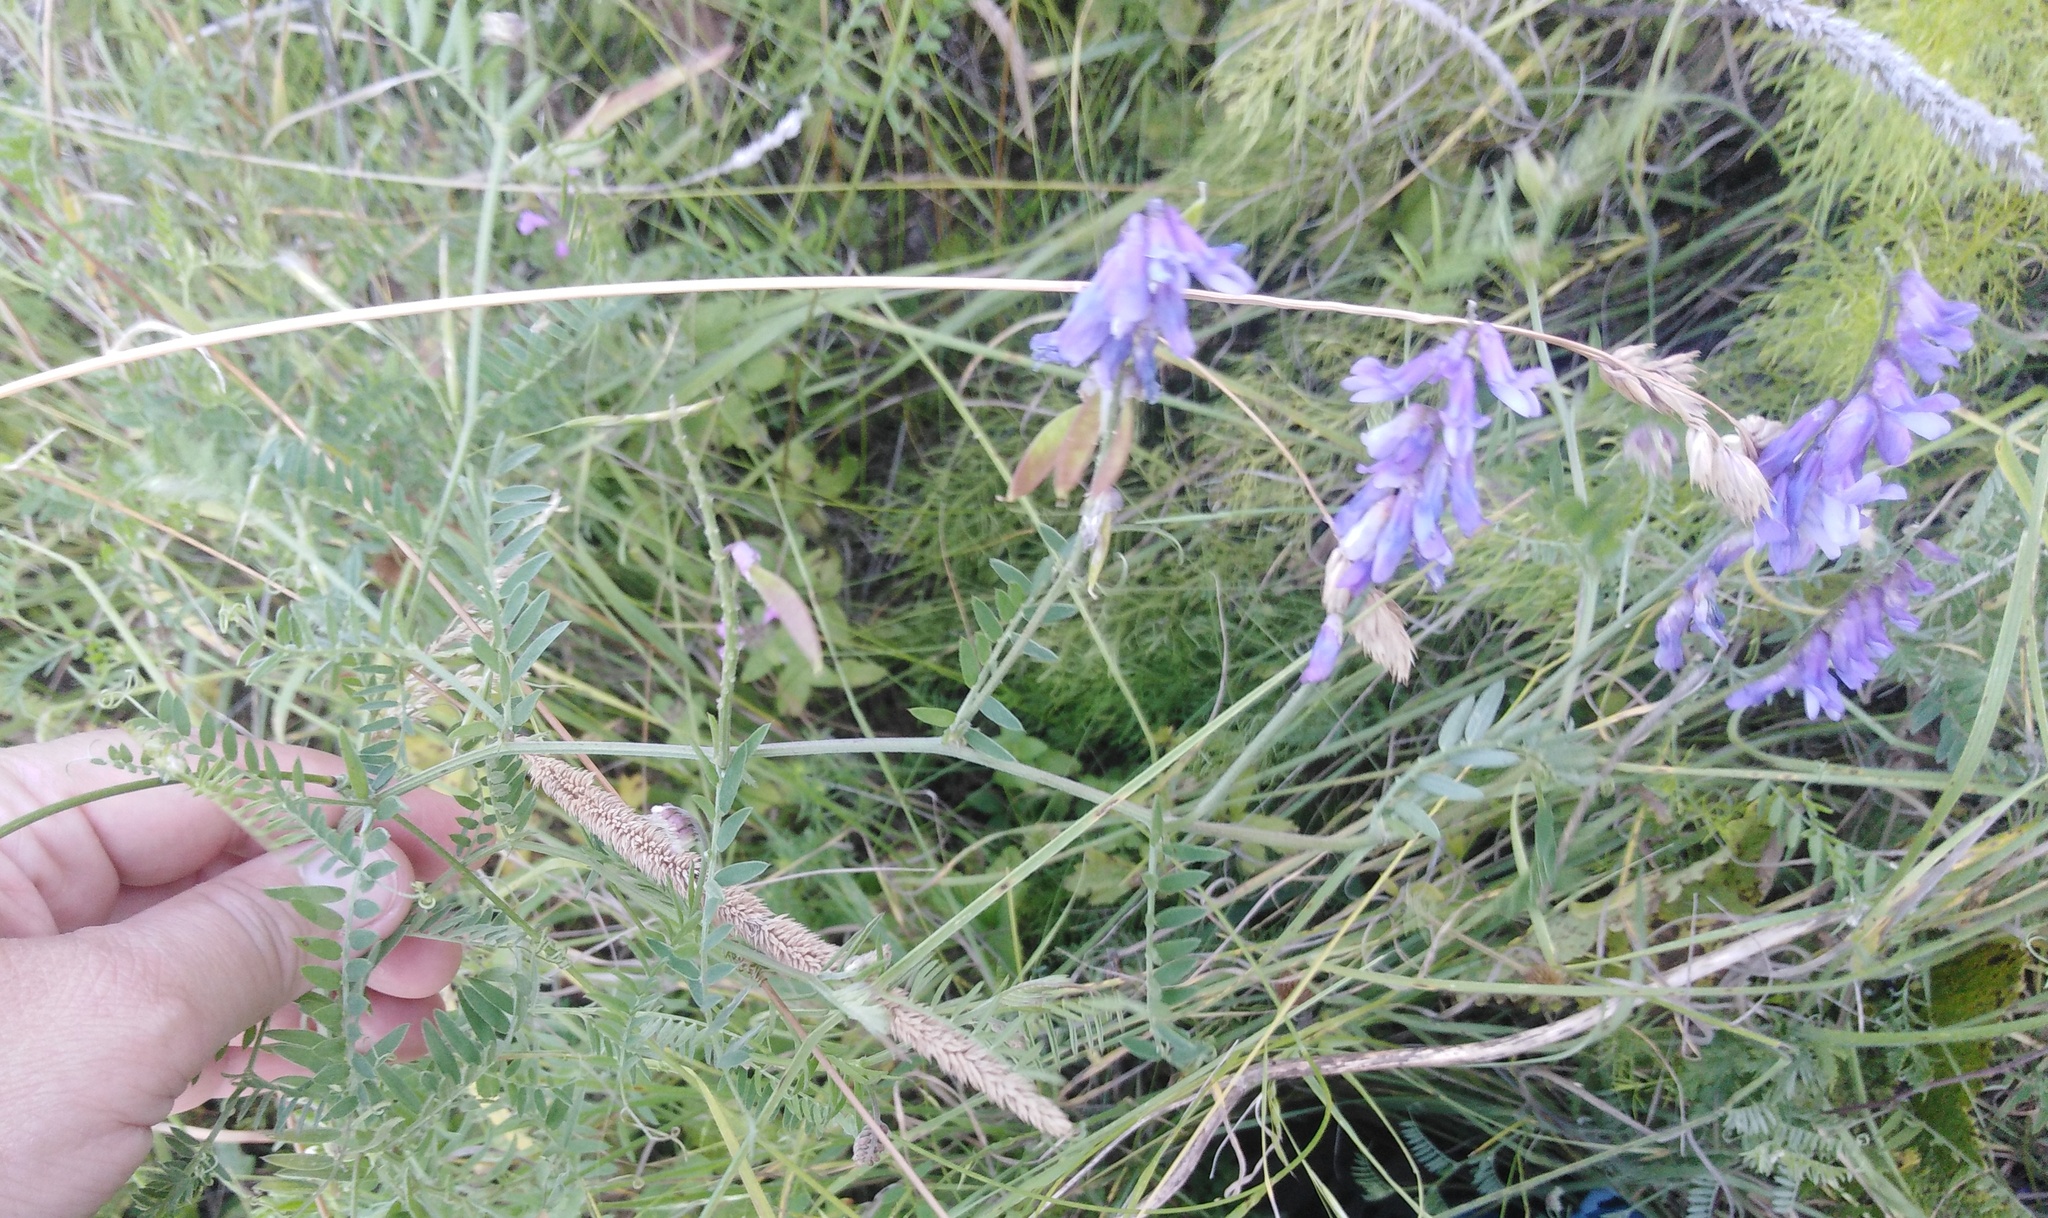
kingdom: Plantae
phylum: Tracheophyta
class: Magnoliopsida
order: Fabales
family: Fabaceae
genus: Vicia
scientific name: Vicia cracca
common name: Bird vetch
